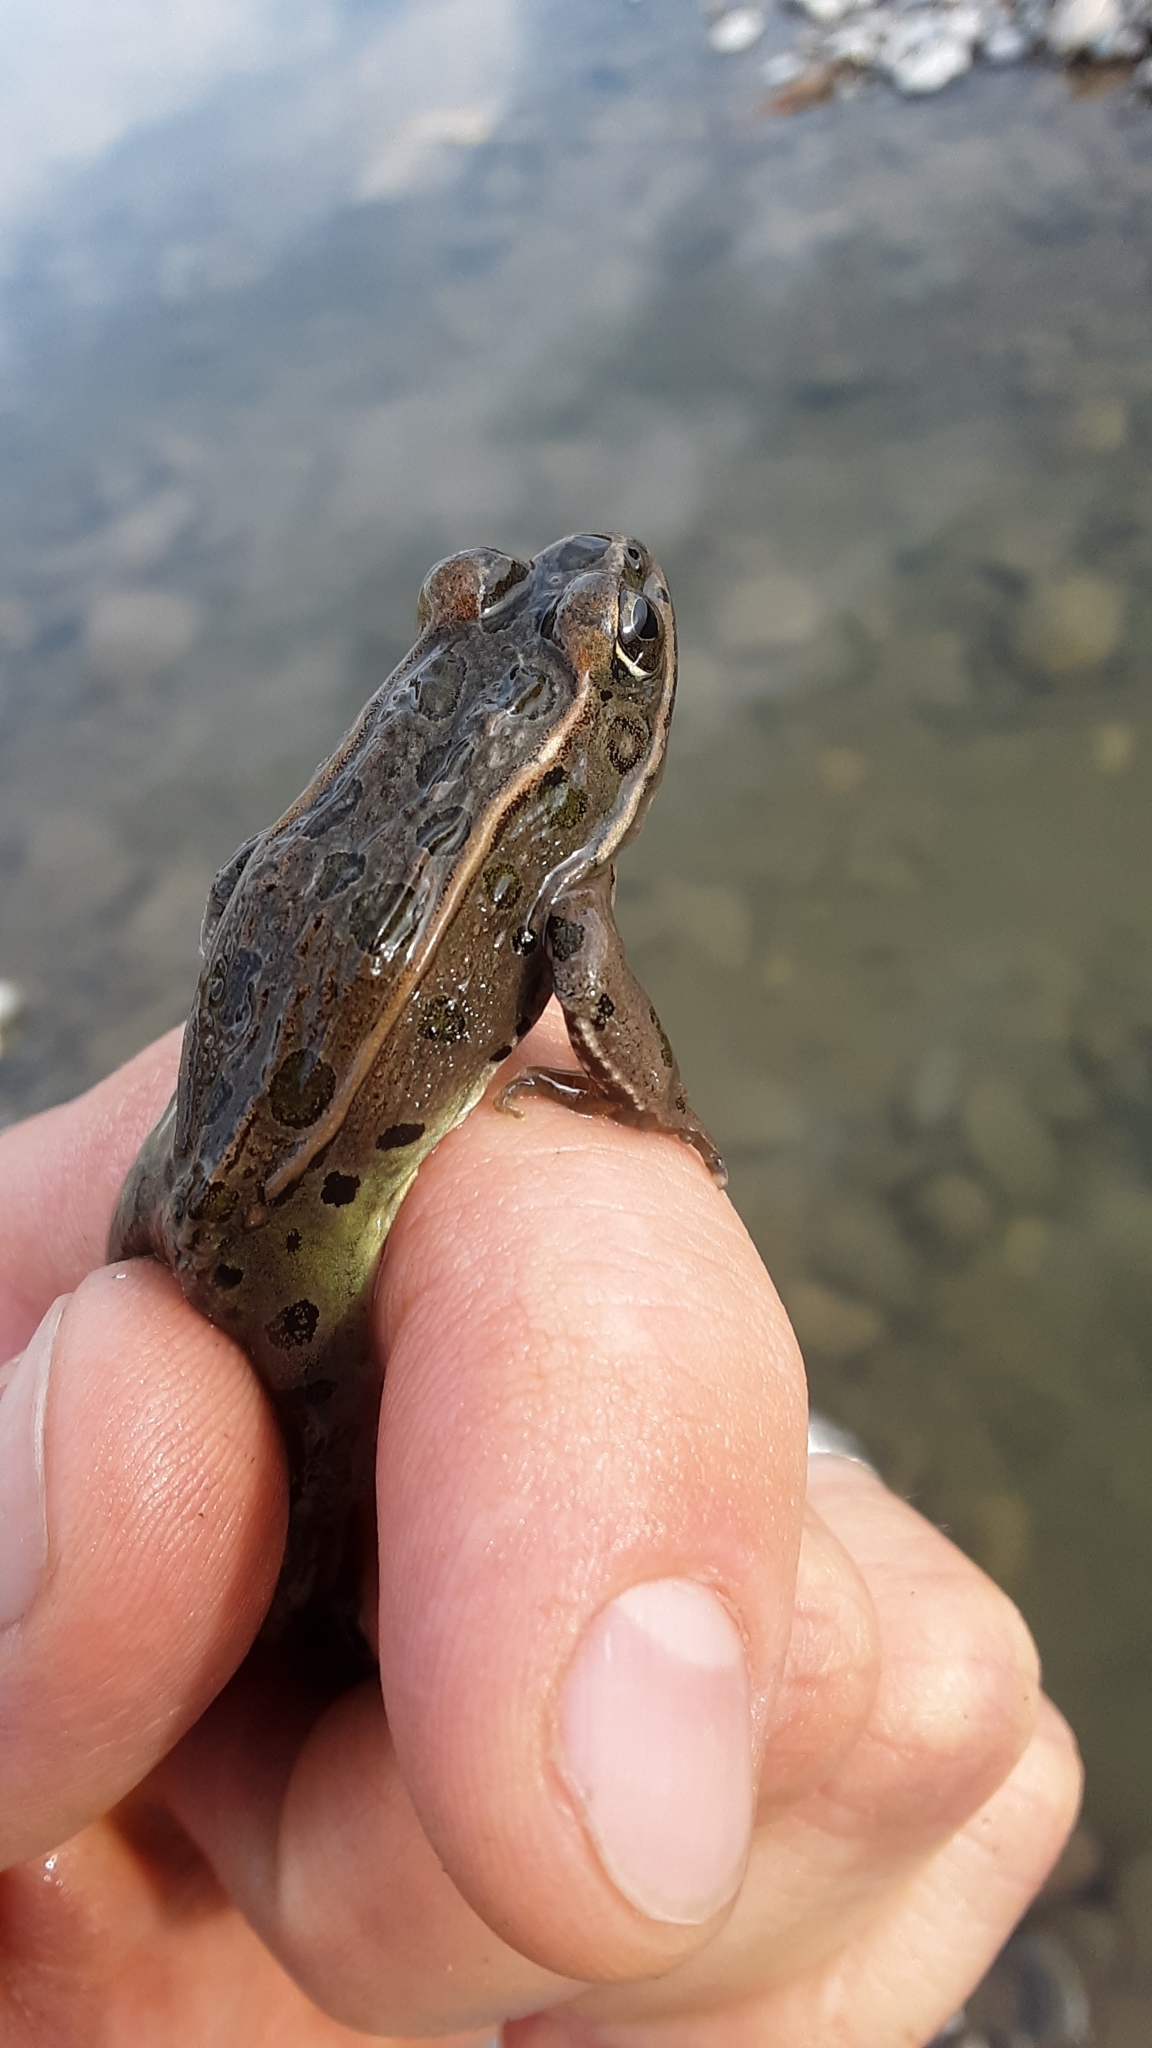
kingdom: Animalia
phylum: Chordata
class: Amphibia
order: Anura
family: Ranidae
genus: Lithobates
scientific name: Lithobates pipiens
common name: Northern leopard frog
